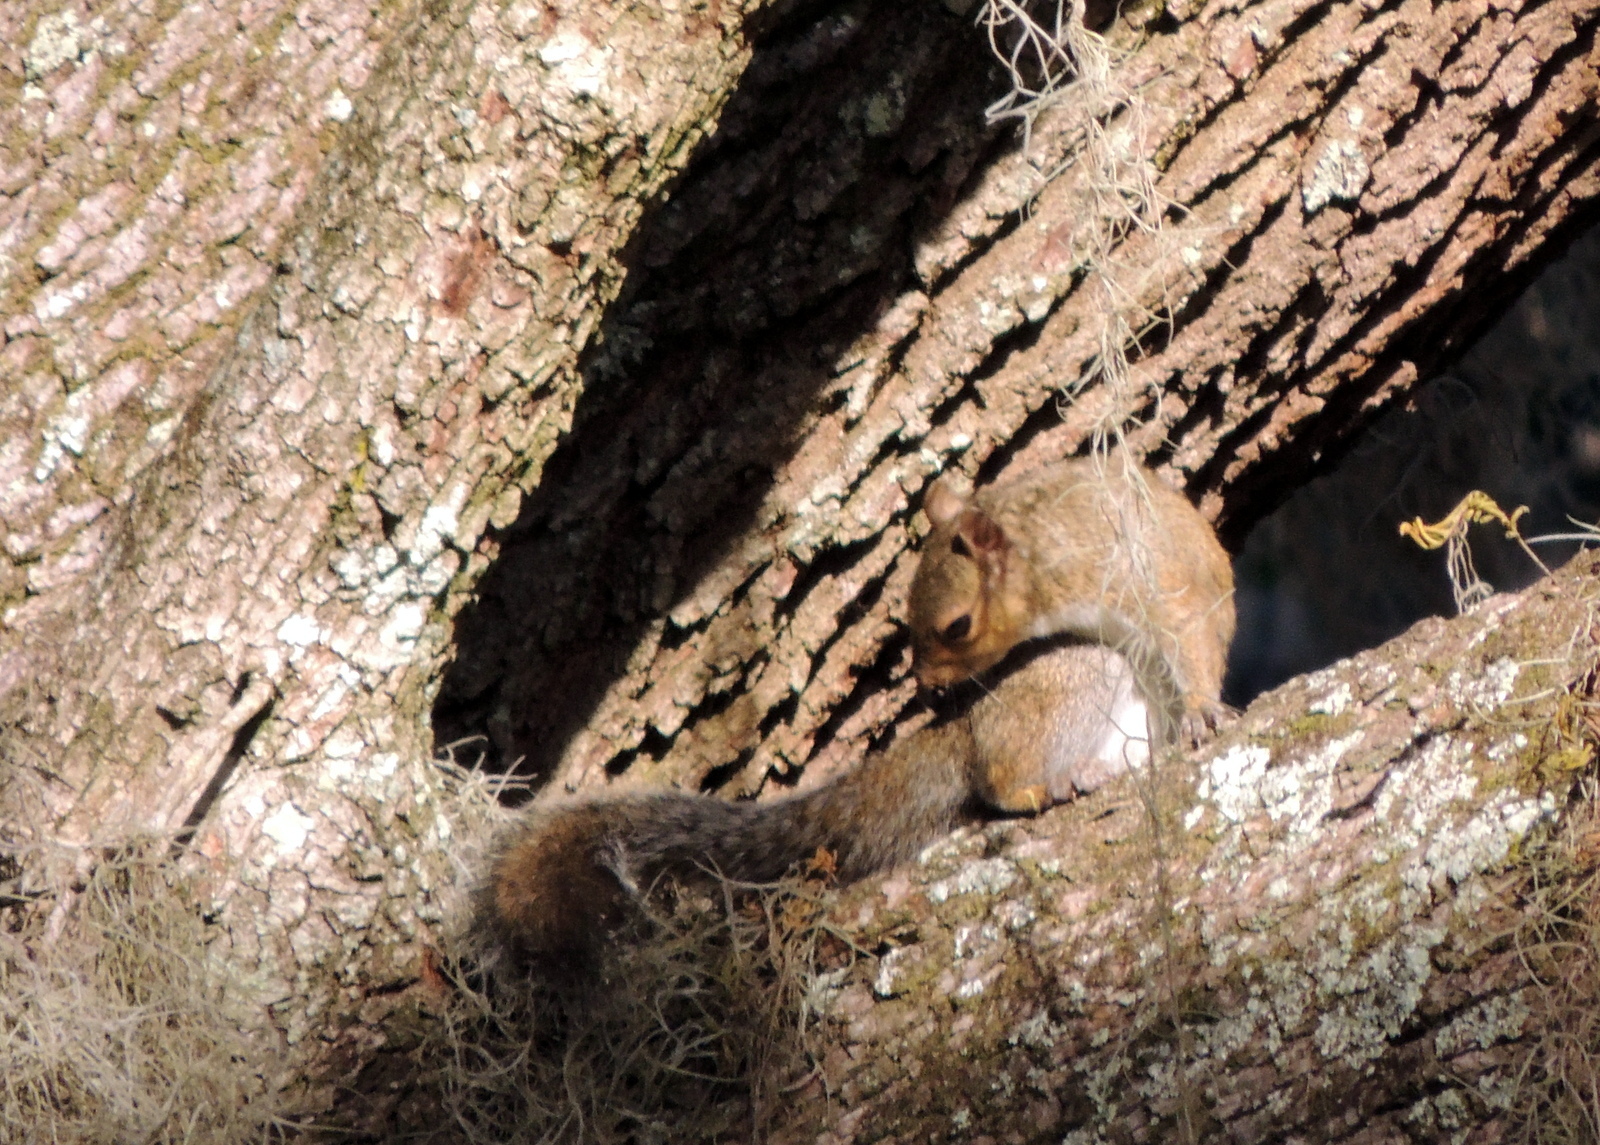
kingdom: Animalia
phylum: Chordata
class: Mammalia
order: Rodentia
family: Sciuridae
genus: Sciurus
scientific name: Sciurus carolinensis
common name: Eastern gray squirrel
